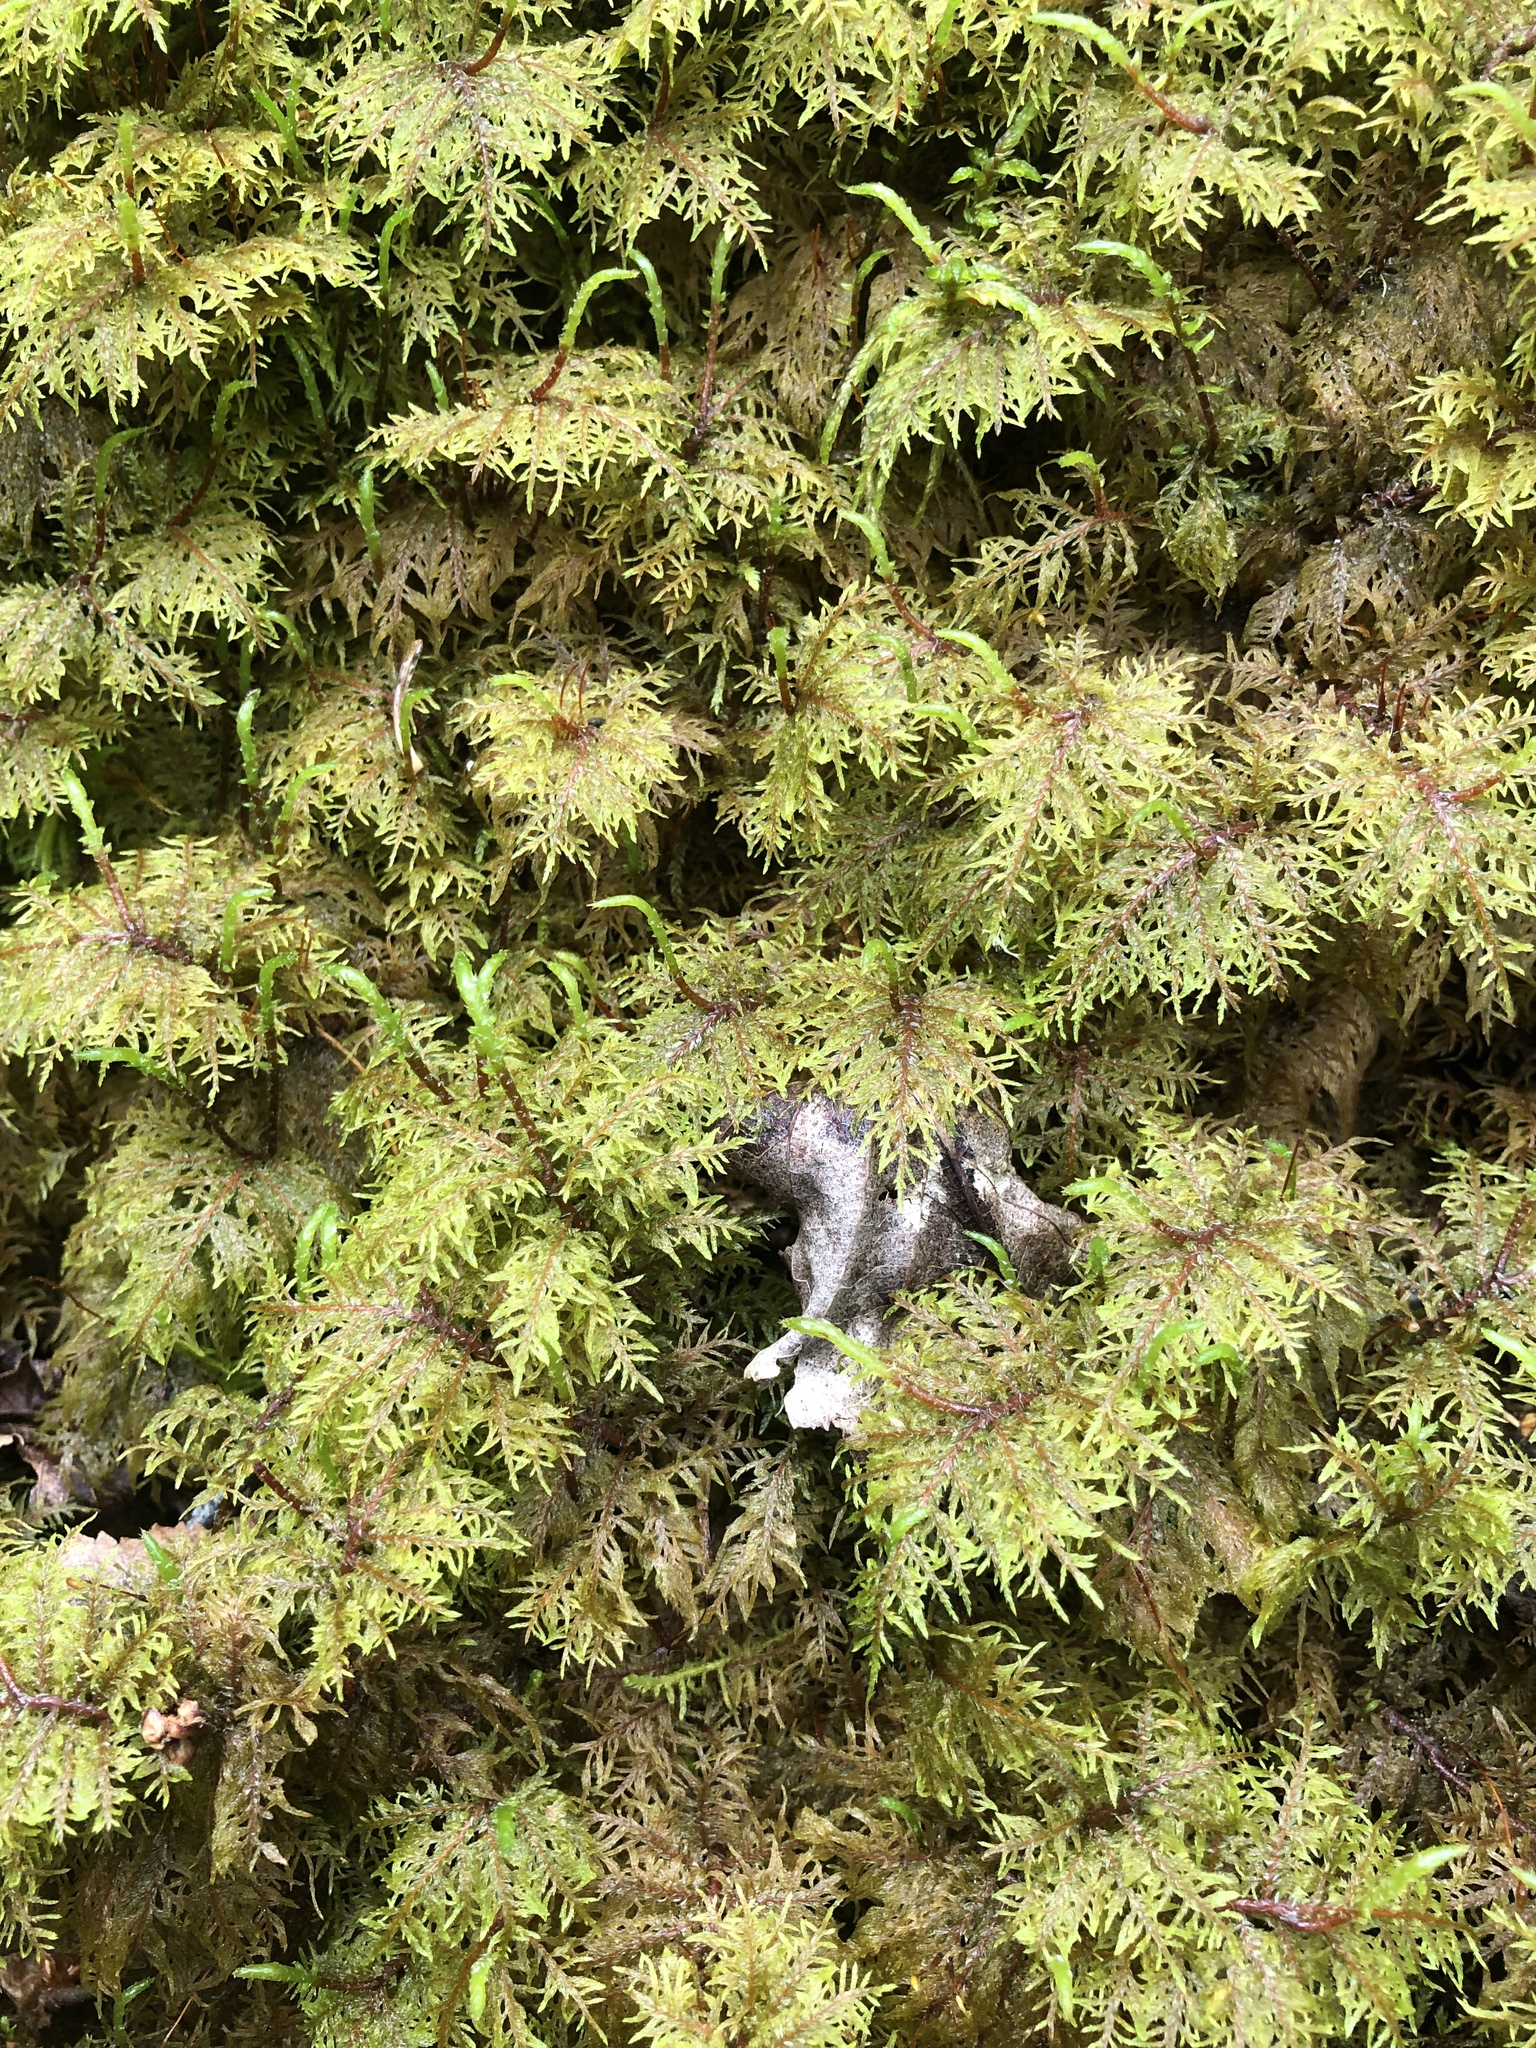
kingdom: Plantae
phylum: Bryophyta
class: Bryopsida
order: Hypnales
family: Hylocomiaceae
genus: Hylocomium
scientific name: Hylocomium splendens
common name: Stairstep moss
